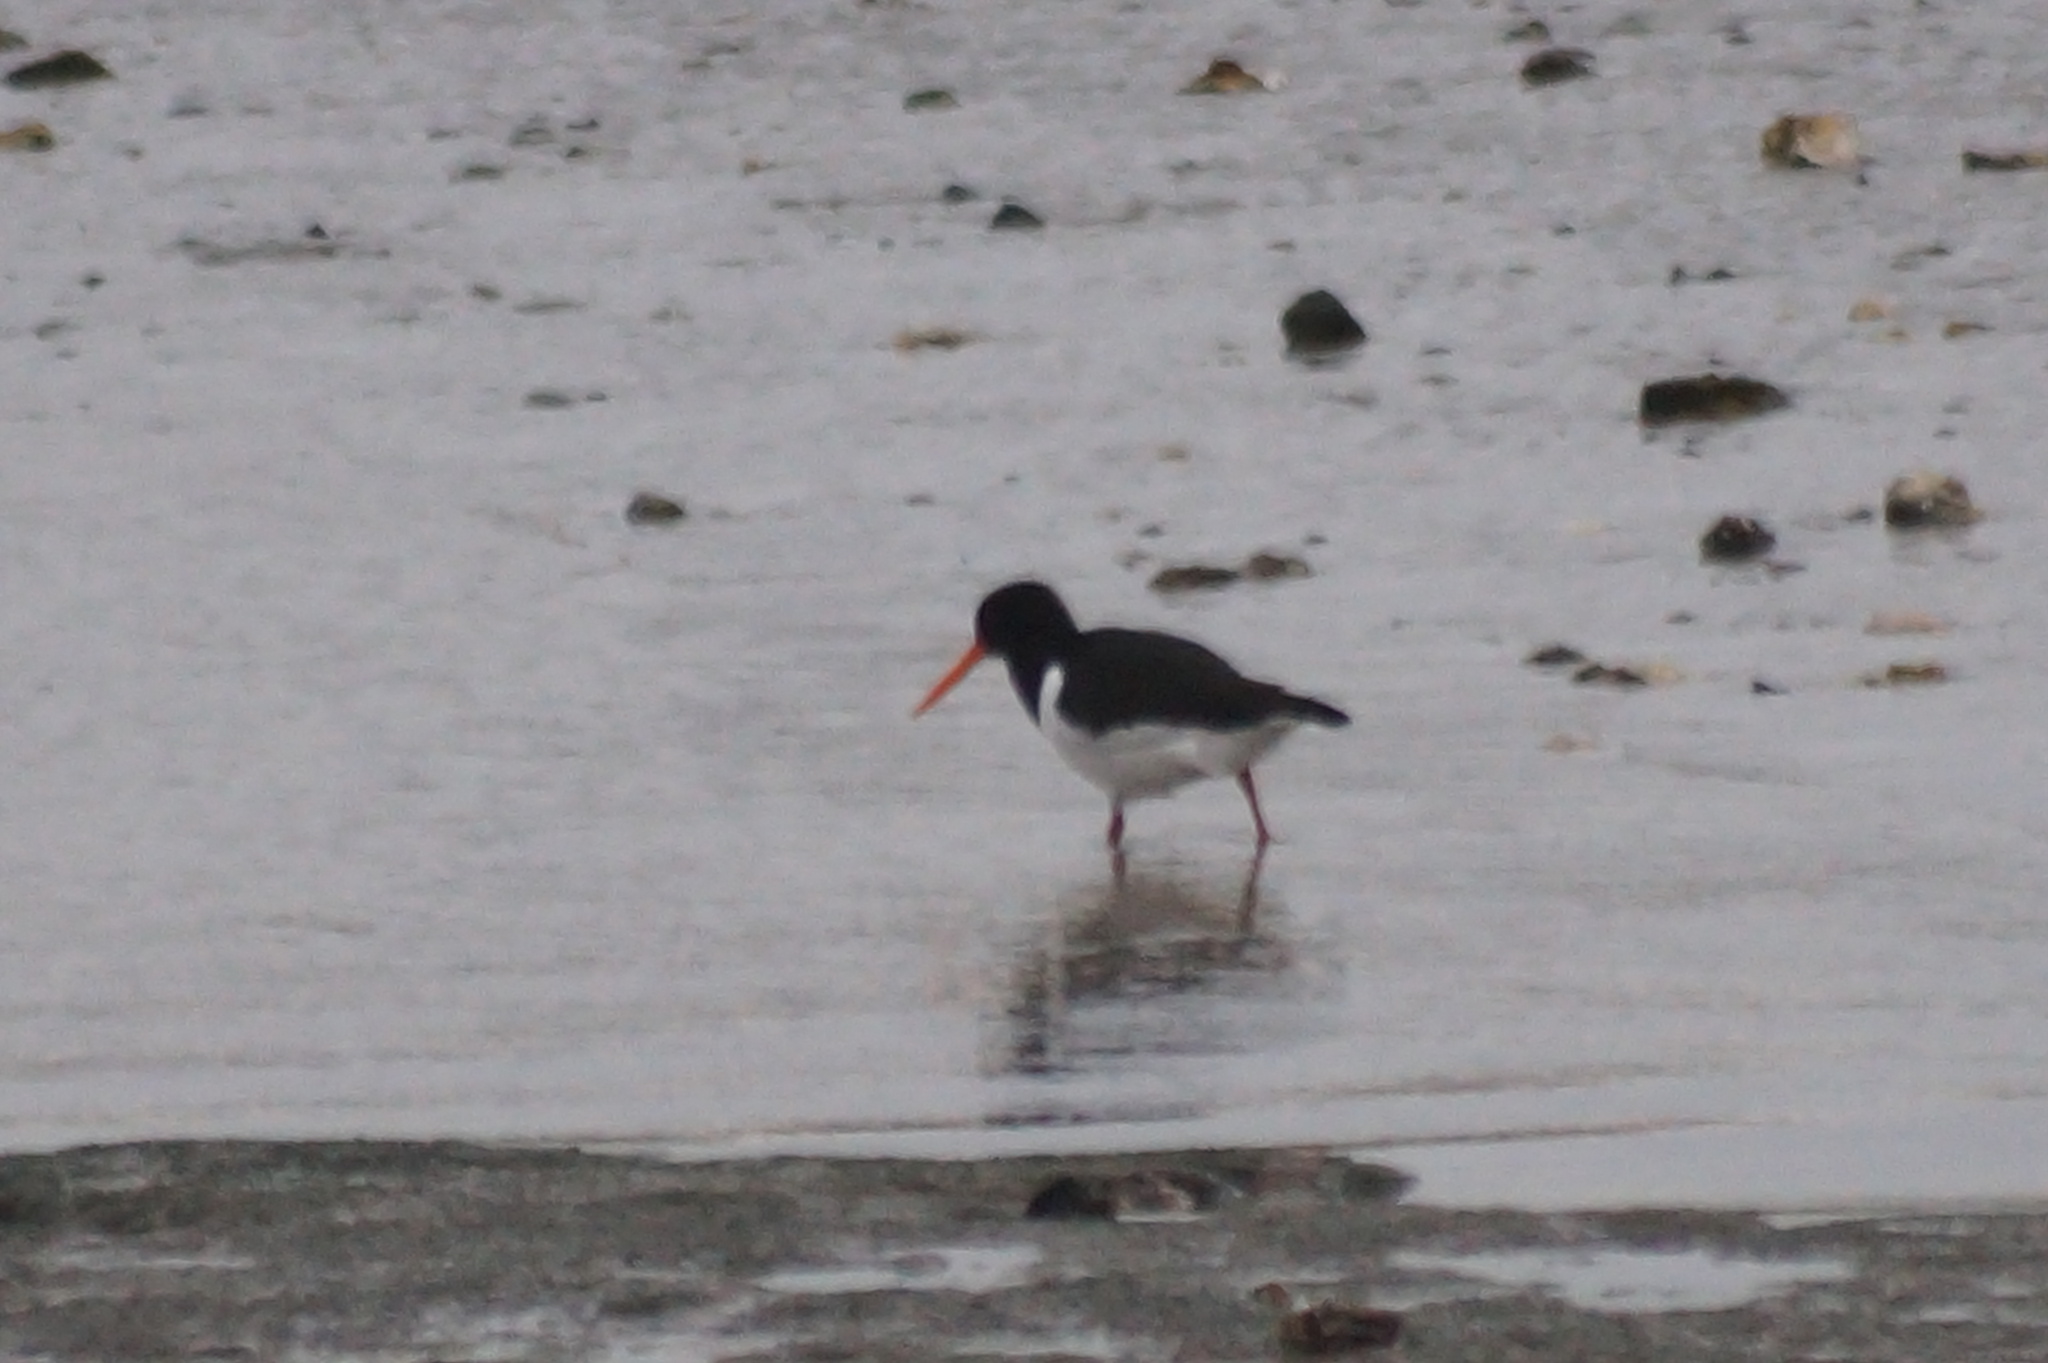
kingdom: Animalia
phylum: Chordata
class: Aves
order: Charadriiformes
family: Haematopodidae
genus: Haematopus
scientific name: Haematopus ostralegus
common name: Eurasian oystercatcher
